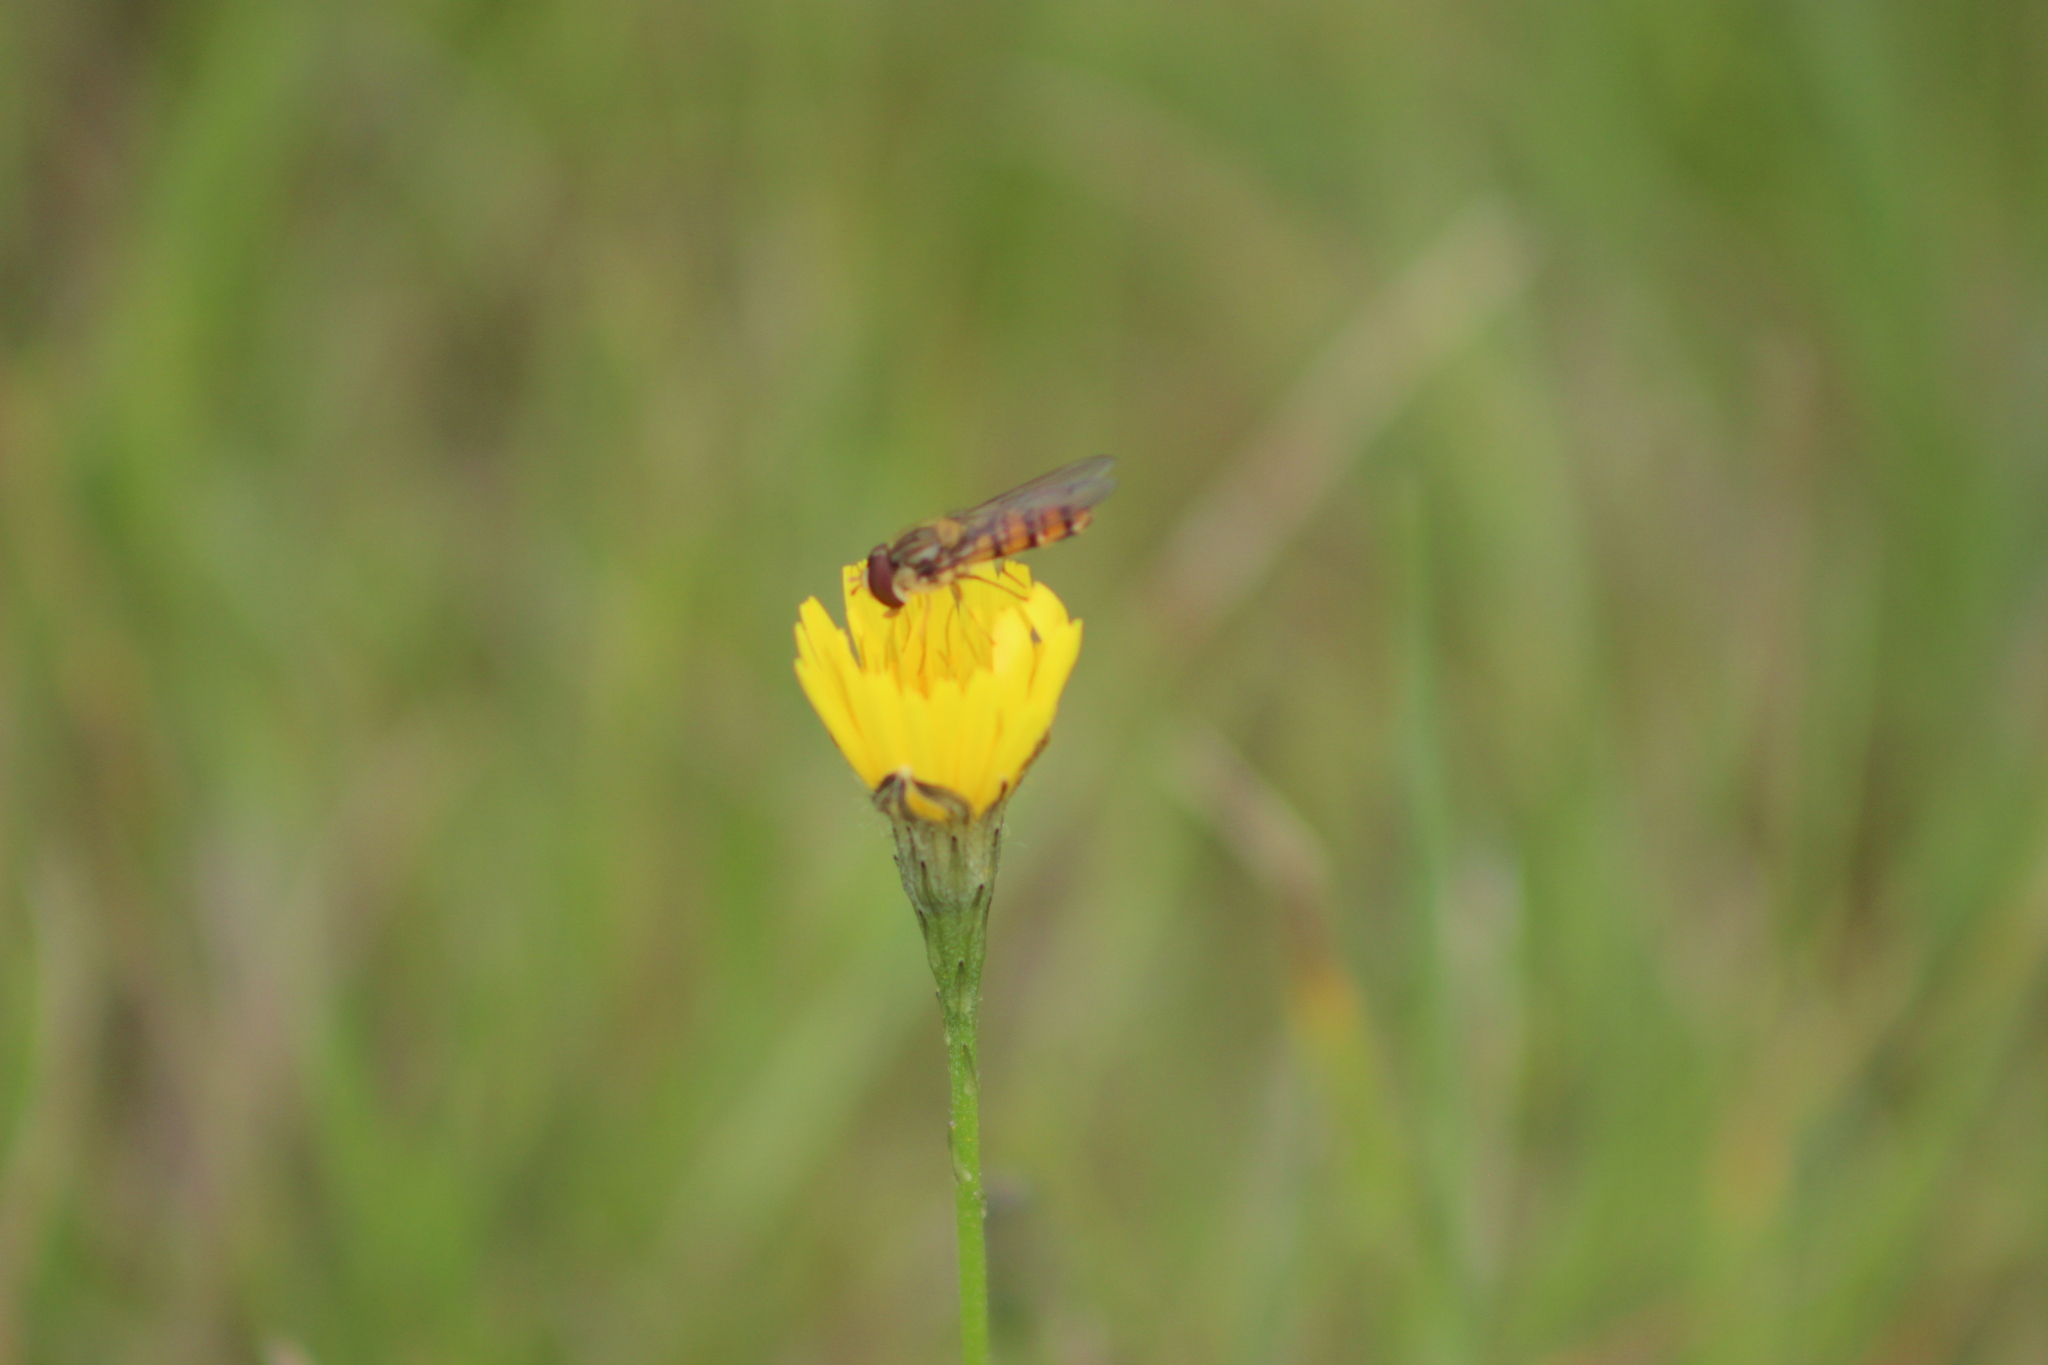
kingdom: Animalia
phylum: Arthropoda
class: Insecta
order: Diptera
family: Syrphidae
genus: Episyrphus
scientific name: Episyrphus balteatus
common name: Marmalade hoverfly
